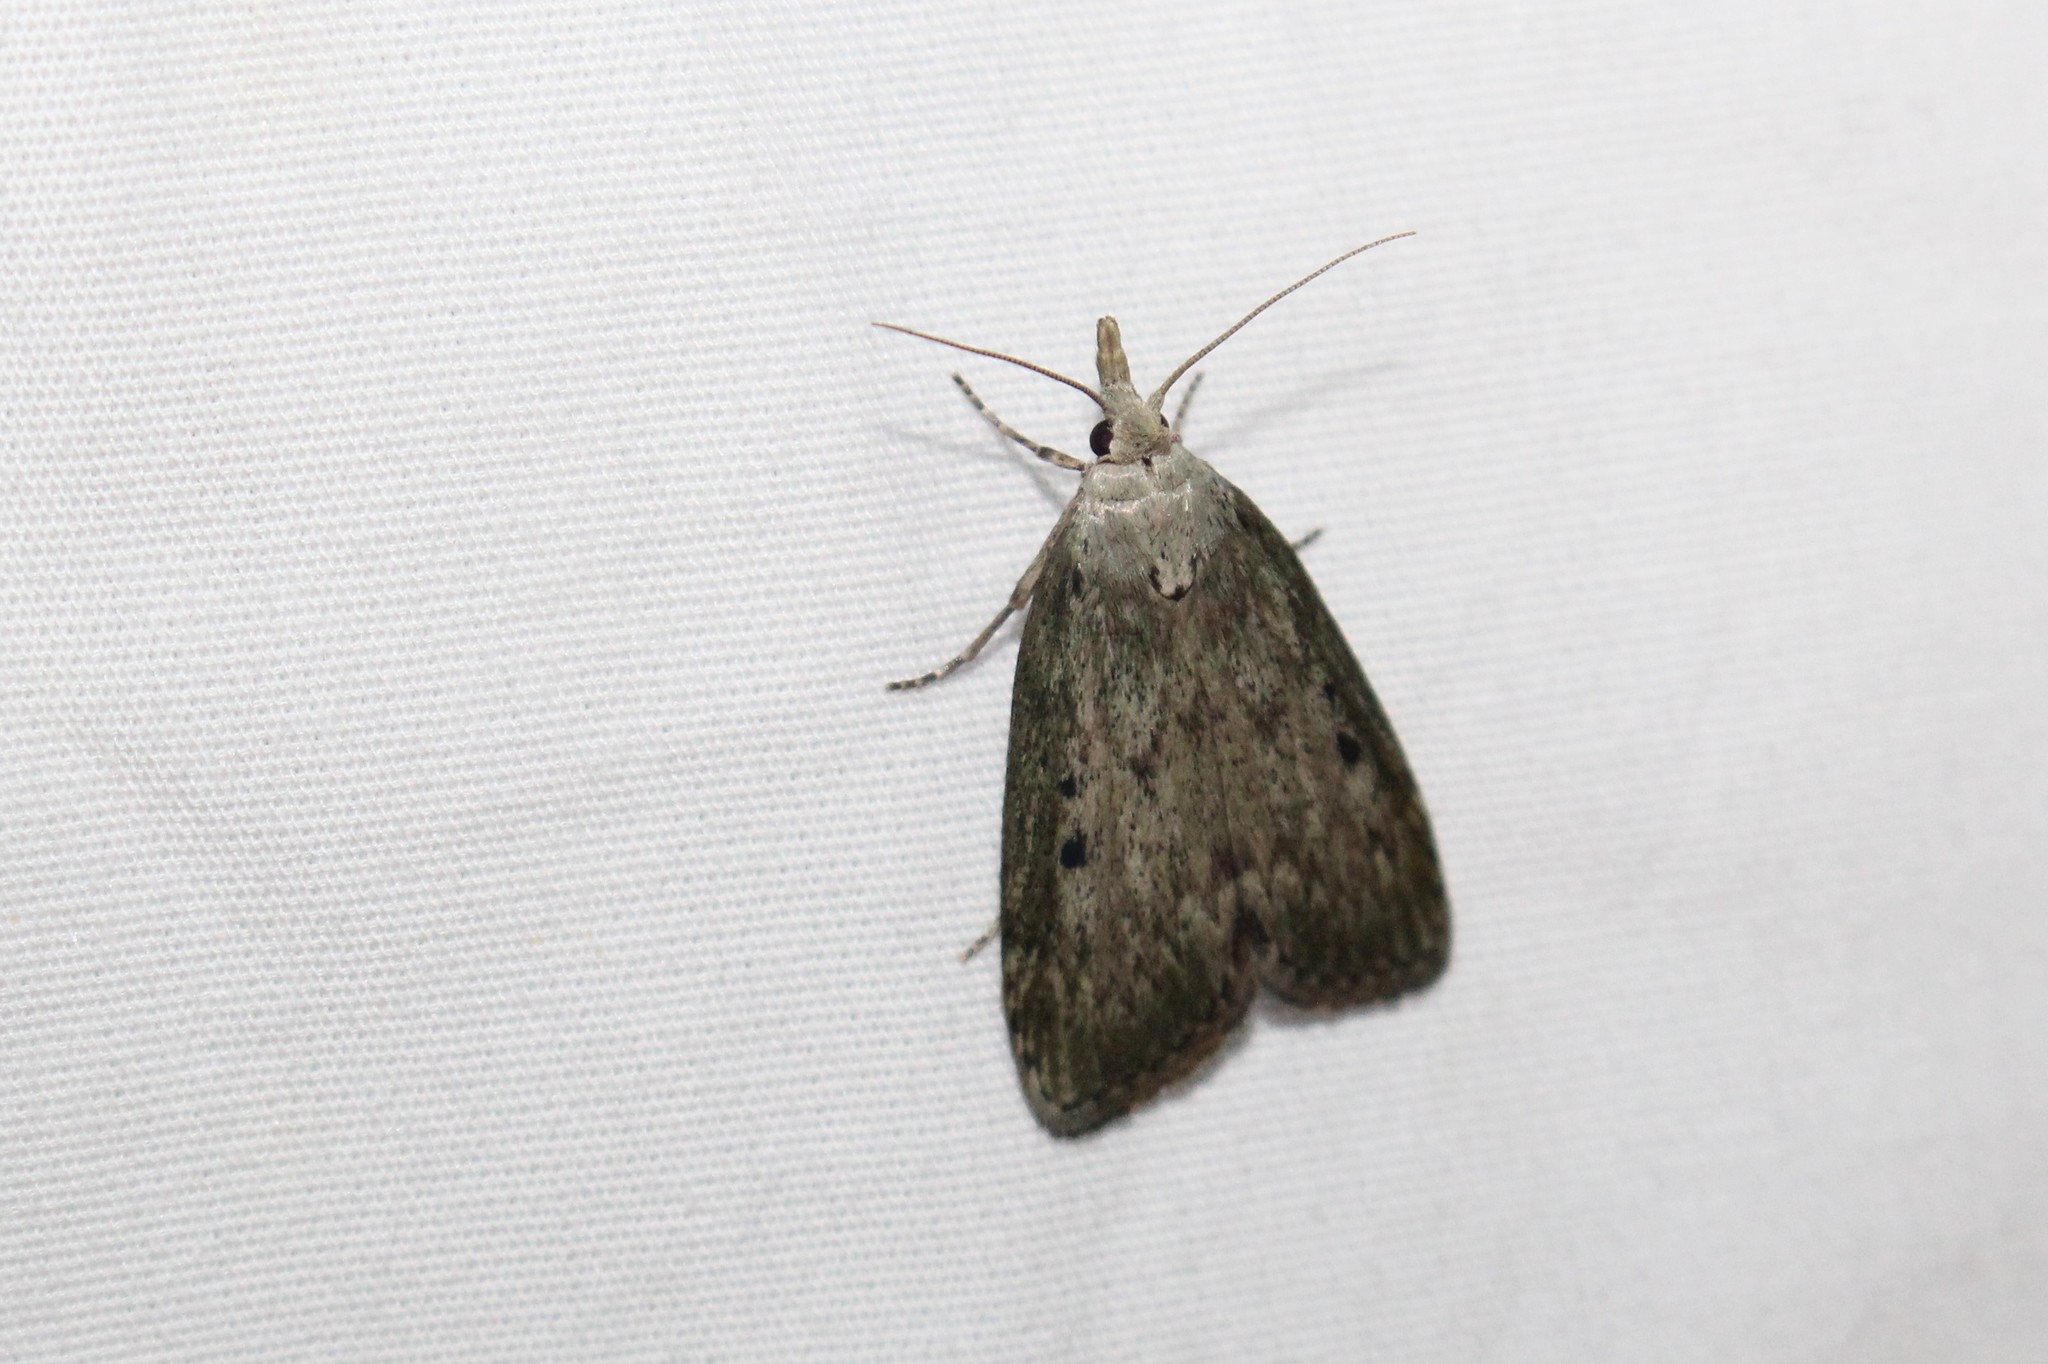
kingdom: Animalia
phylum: Arthropoda
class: Insecta
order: Lepidoptera
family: Pyralidae
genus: Aphomia
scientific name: Aphomia sociella
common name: Bee moth
